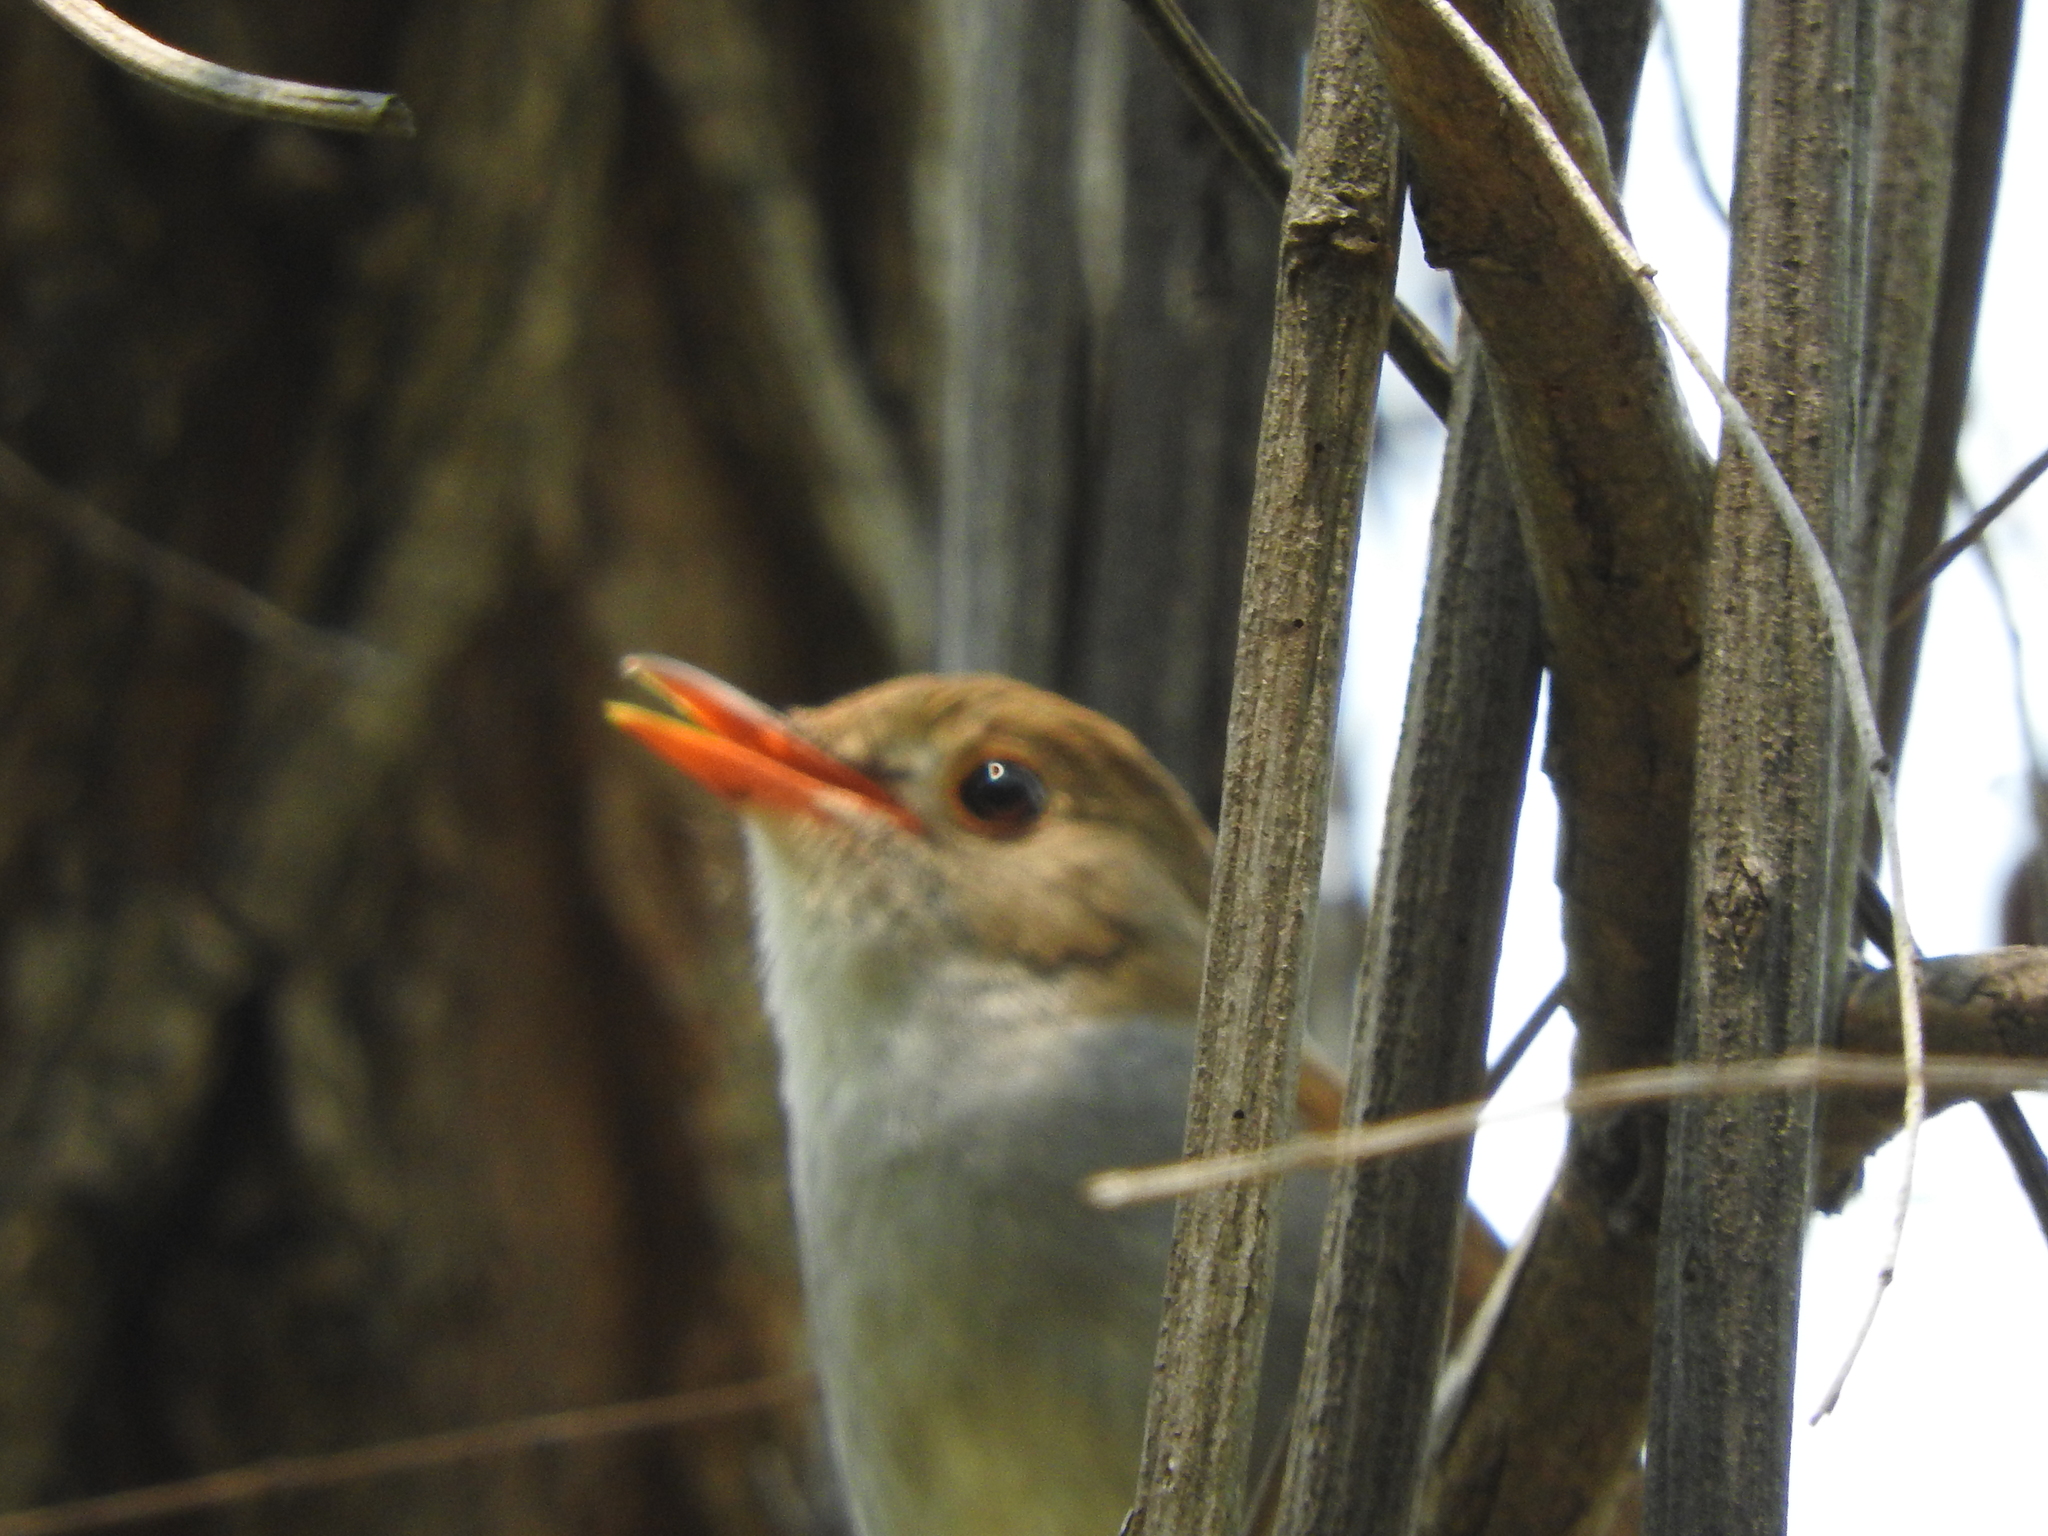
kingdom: Animalia
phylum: Chordata
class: Aves
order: Passeriformes
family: Turdidae
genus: Catharus
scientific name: Catharus aurantiirostris
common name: Orange-billed nightingale-thrush
